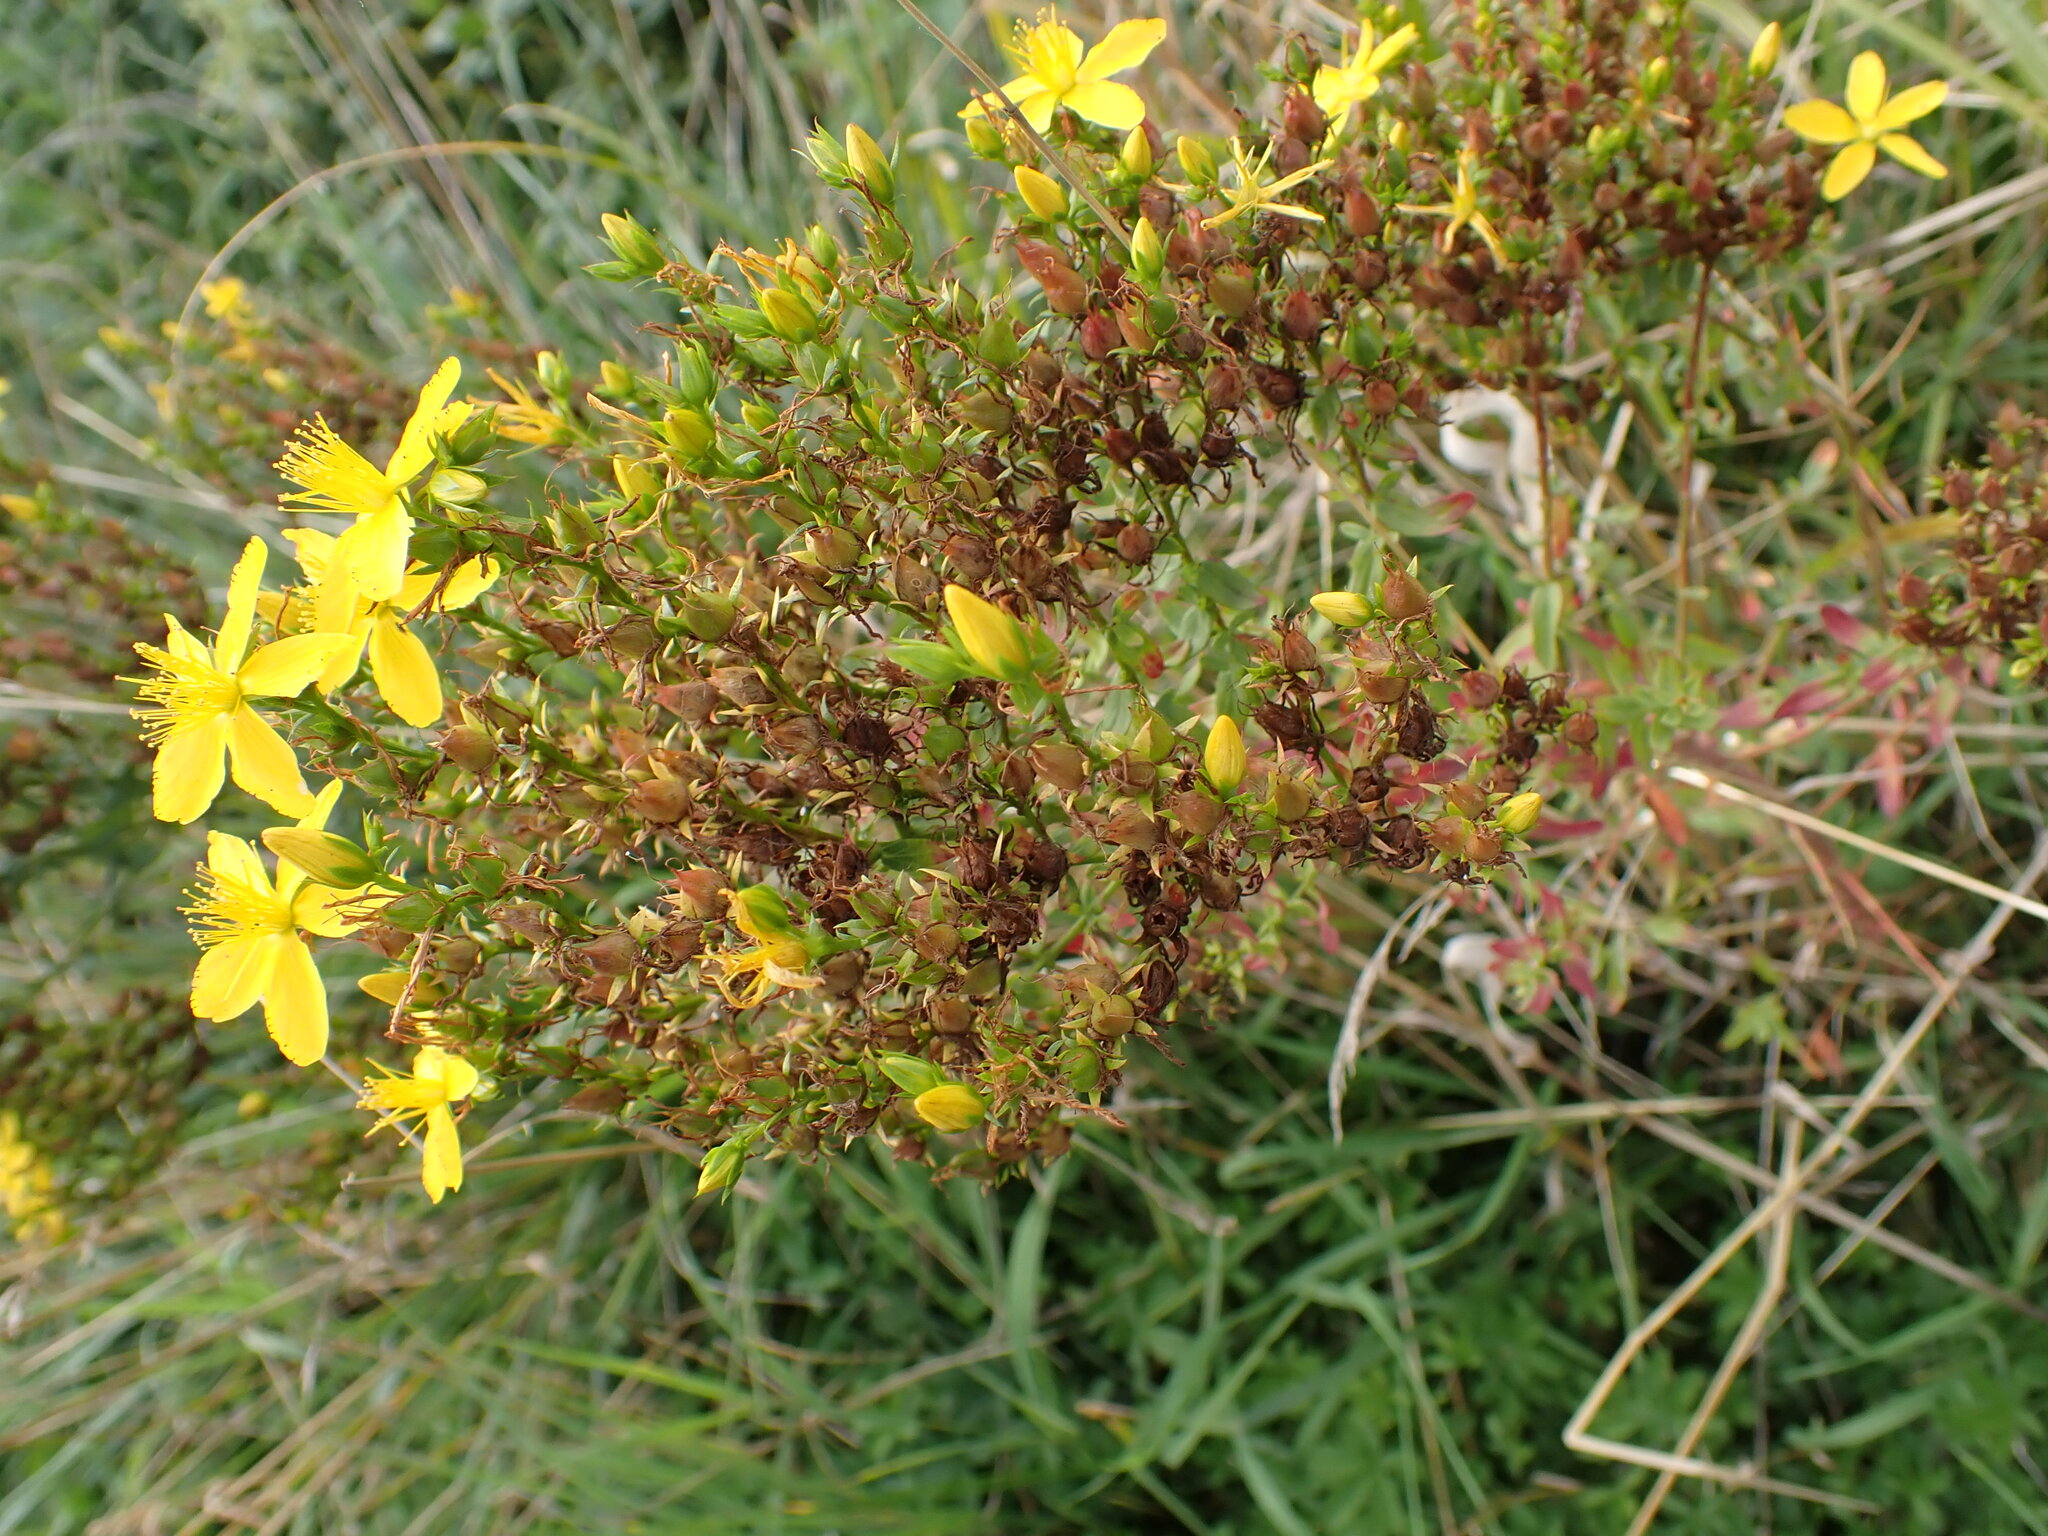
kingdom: Plantae
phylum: Tracheophyta
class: Magnoliopsida
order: Malpighiales
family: Hypericaceae
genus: Hypericum
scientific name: Hypericum perforatum
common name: Common st. johnswort
